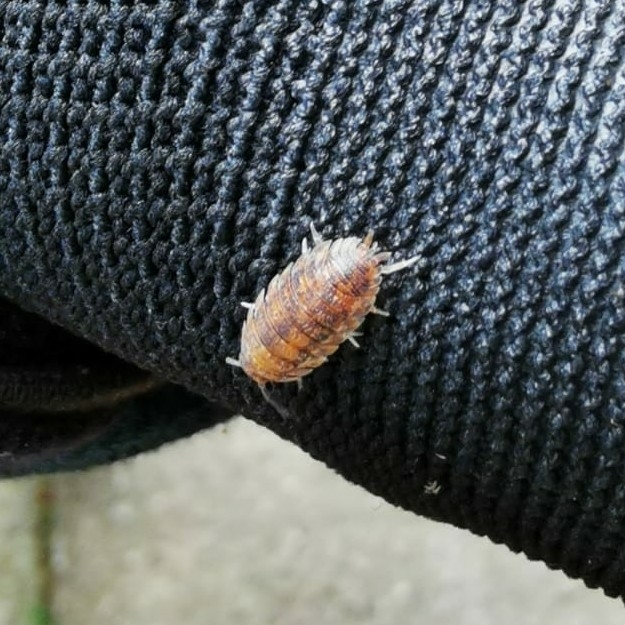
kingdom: Animalia
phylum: Arthropoda
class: Malacostraca
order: Isopoda
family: Porcellionidae
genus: Porcellio
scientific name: Porcellio scaber
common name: Common rough woodlouse
